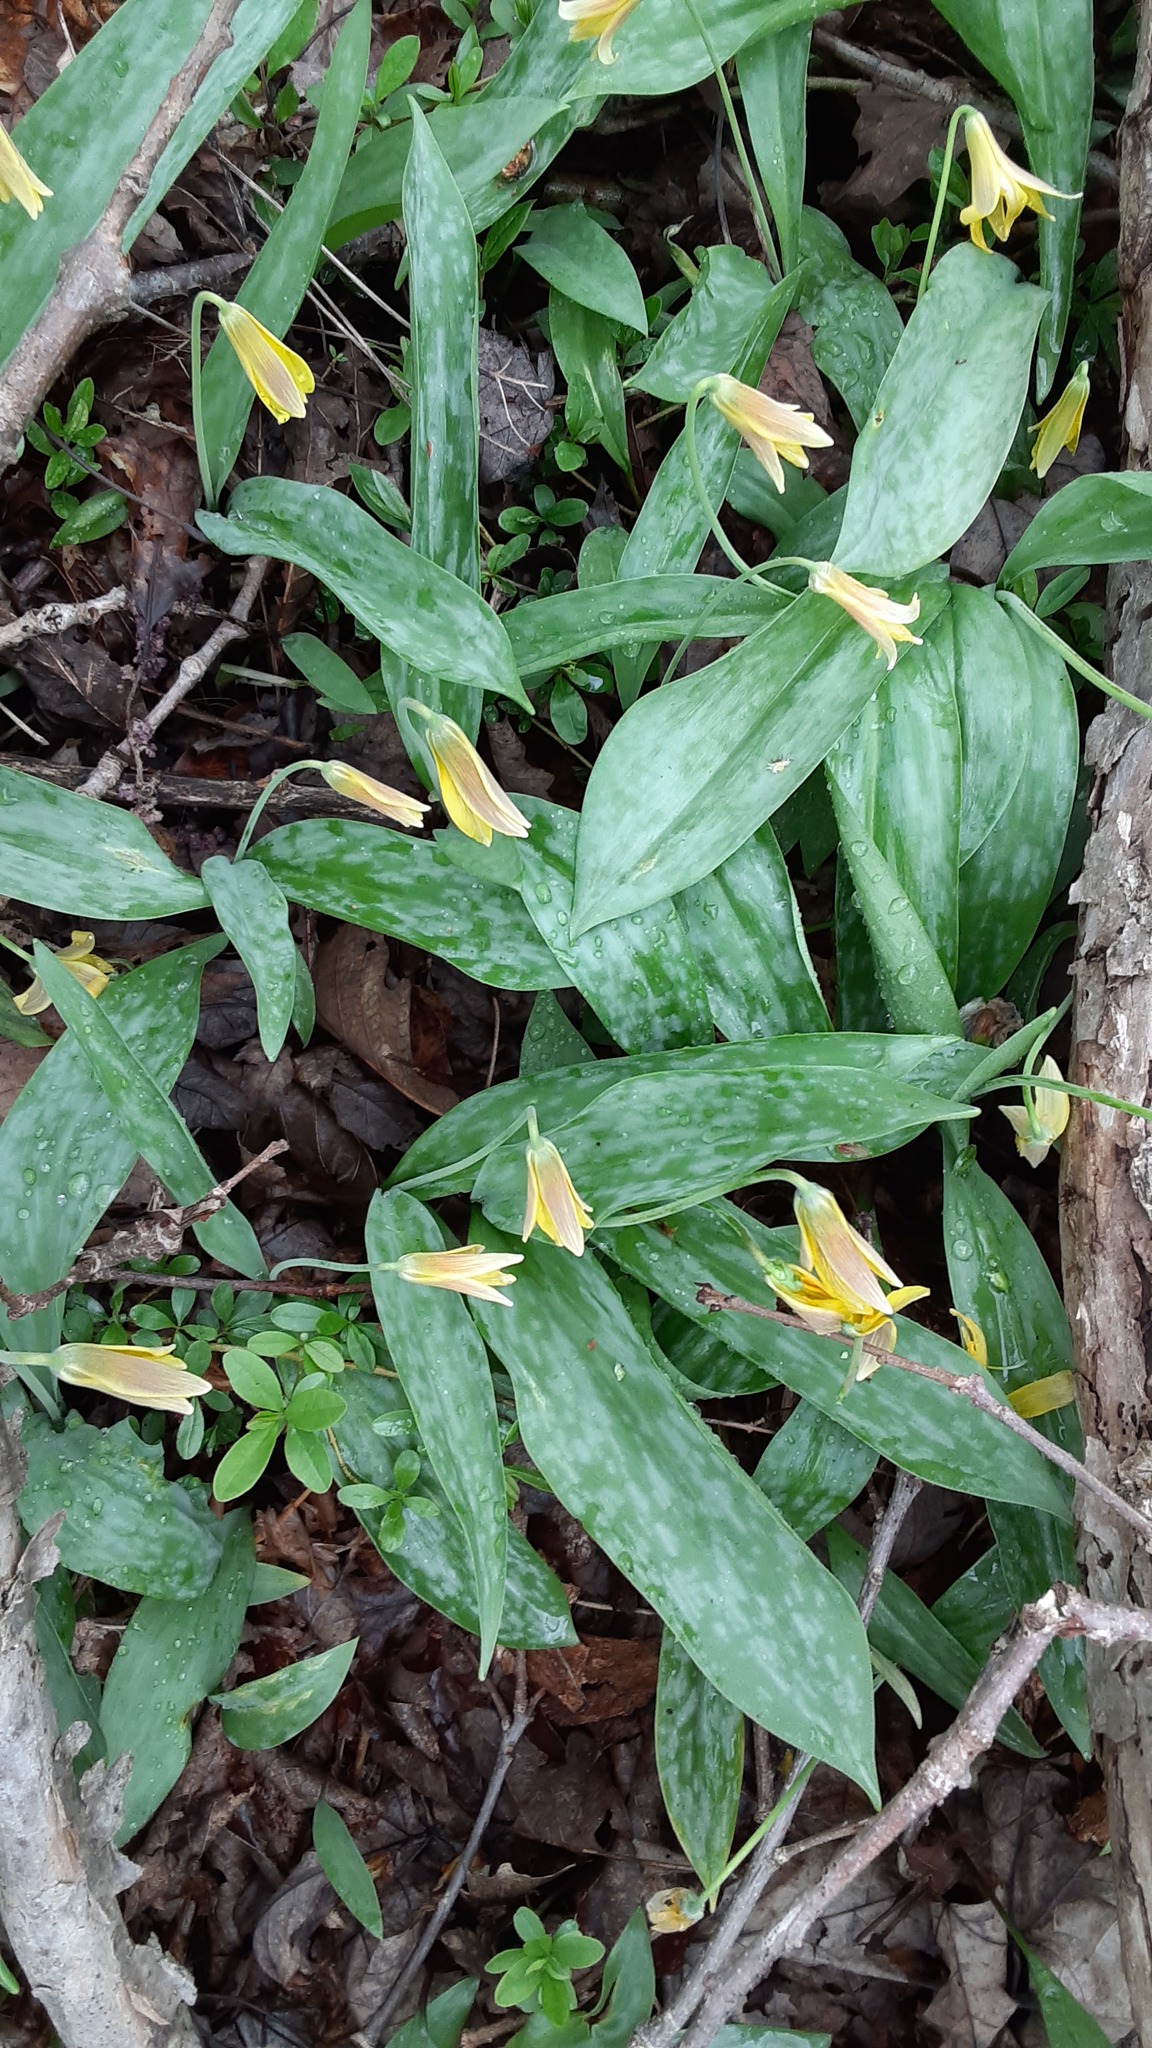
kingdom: Plantae
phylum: Tracheophyta
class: Liliopsida
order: Liliales
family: Liliaceae
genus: Erythronium
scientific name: Erythronium americanum
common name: Yellow adder's-tongue
